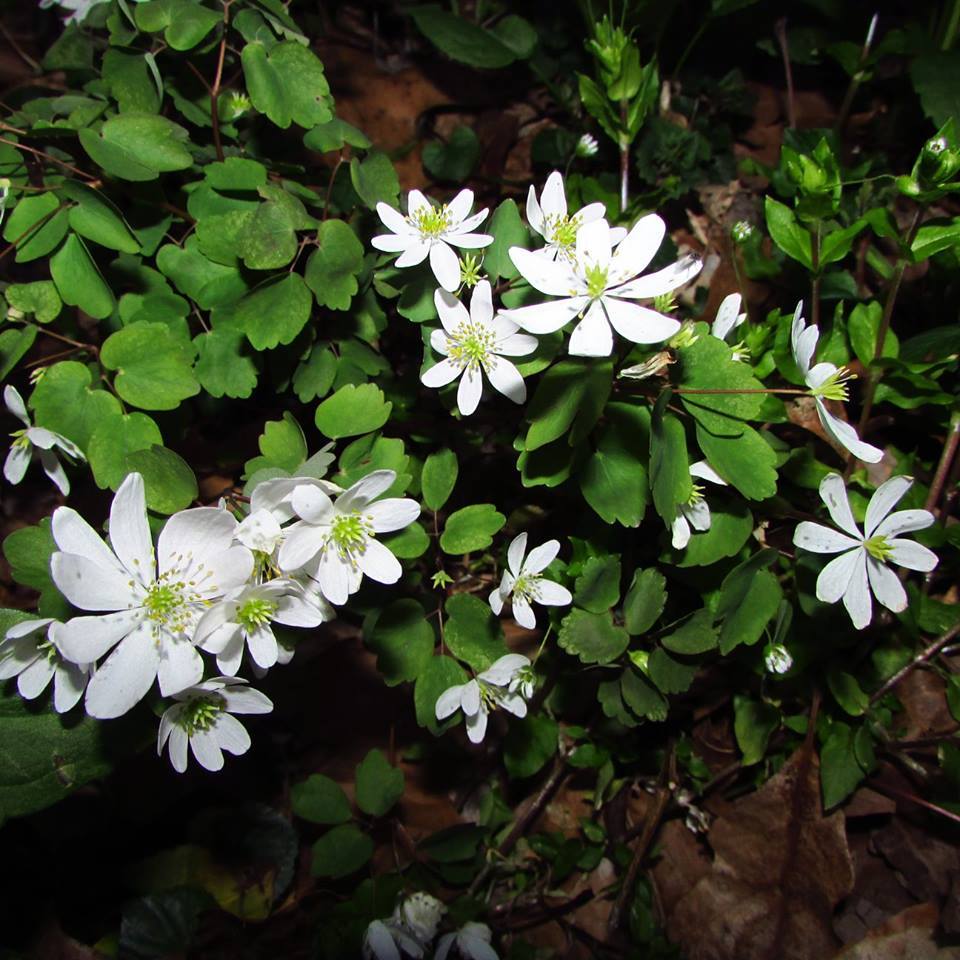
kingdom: Plantae
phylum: Tracheophyta
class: Magnoliopsida
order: Ranunculales
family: Ranunculaceae
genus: Thalictrum
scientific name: Thalictrum thalictroides
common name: Rue-anemone
